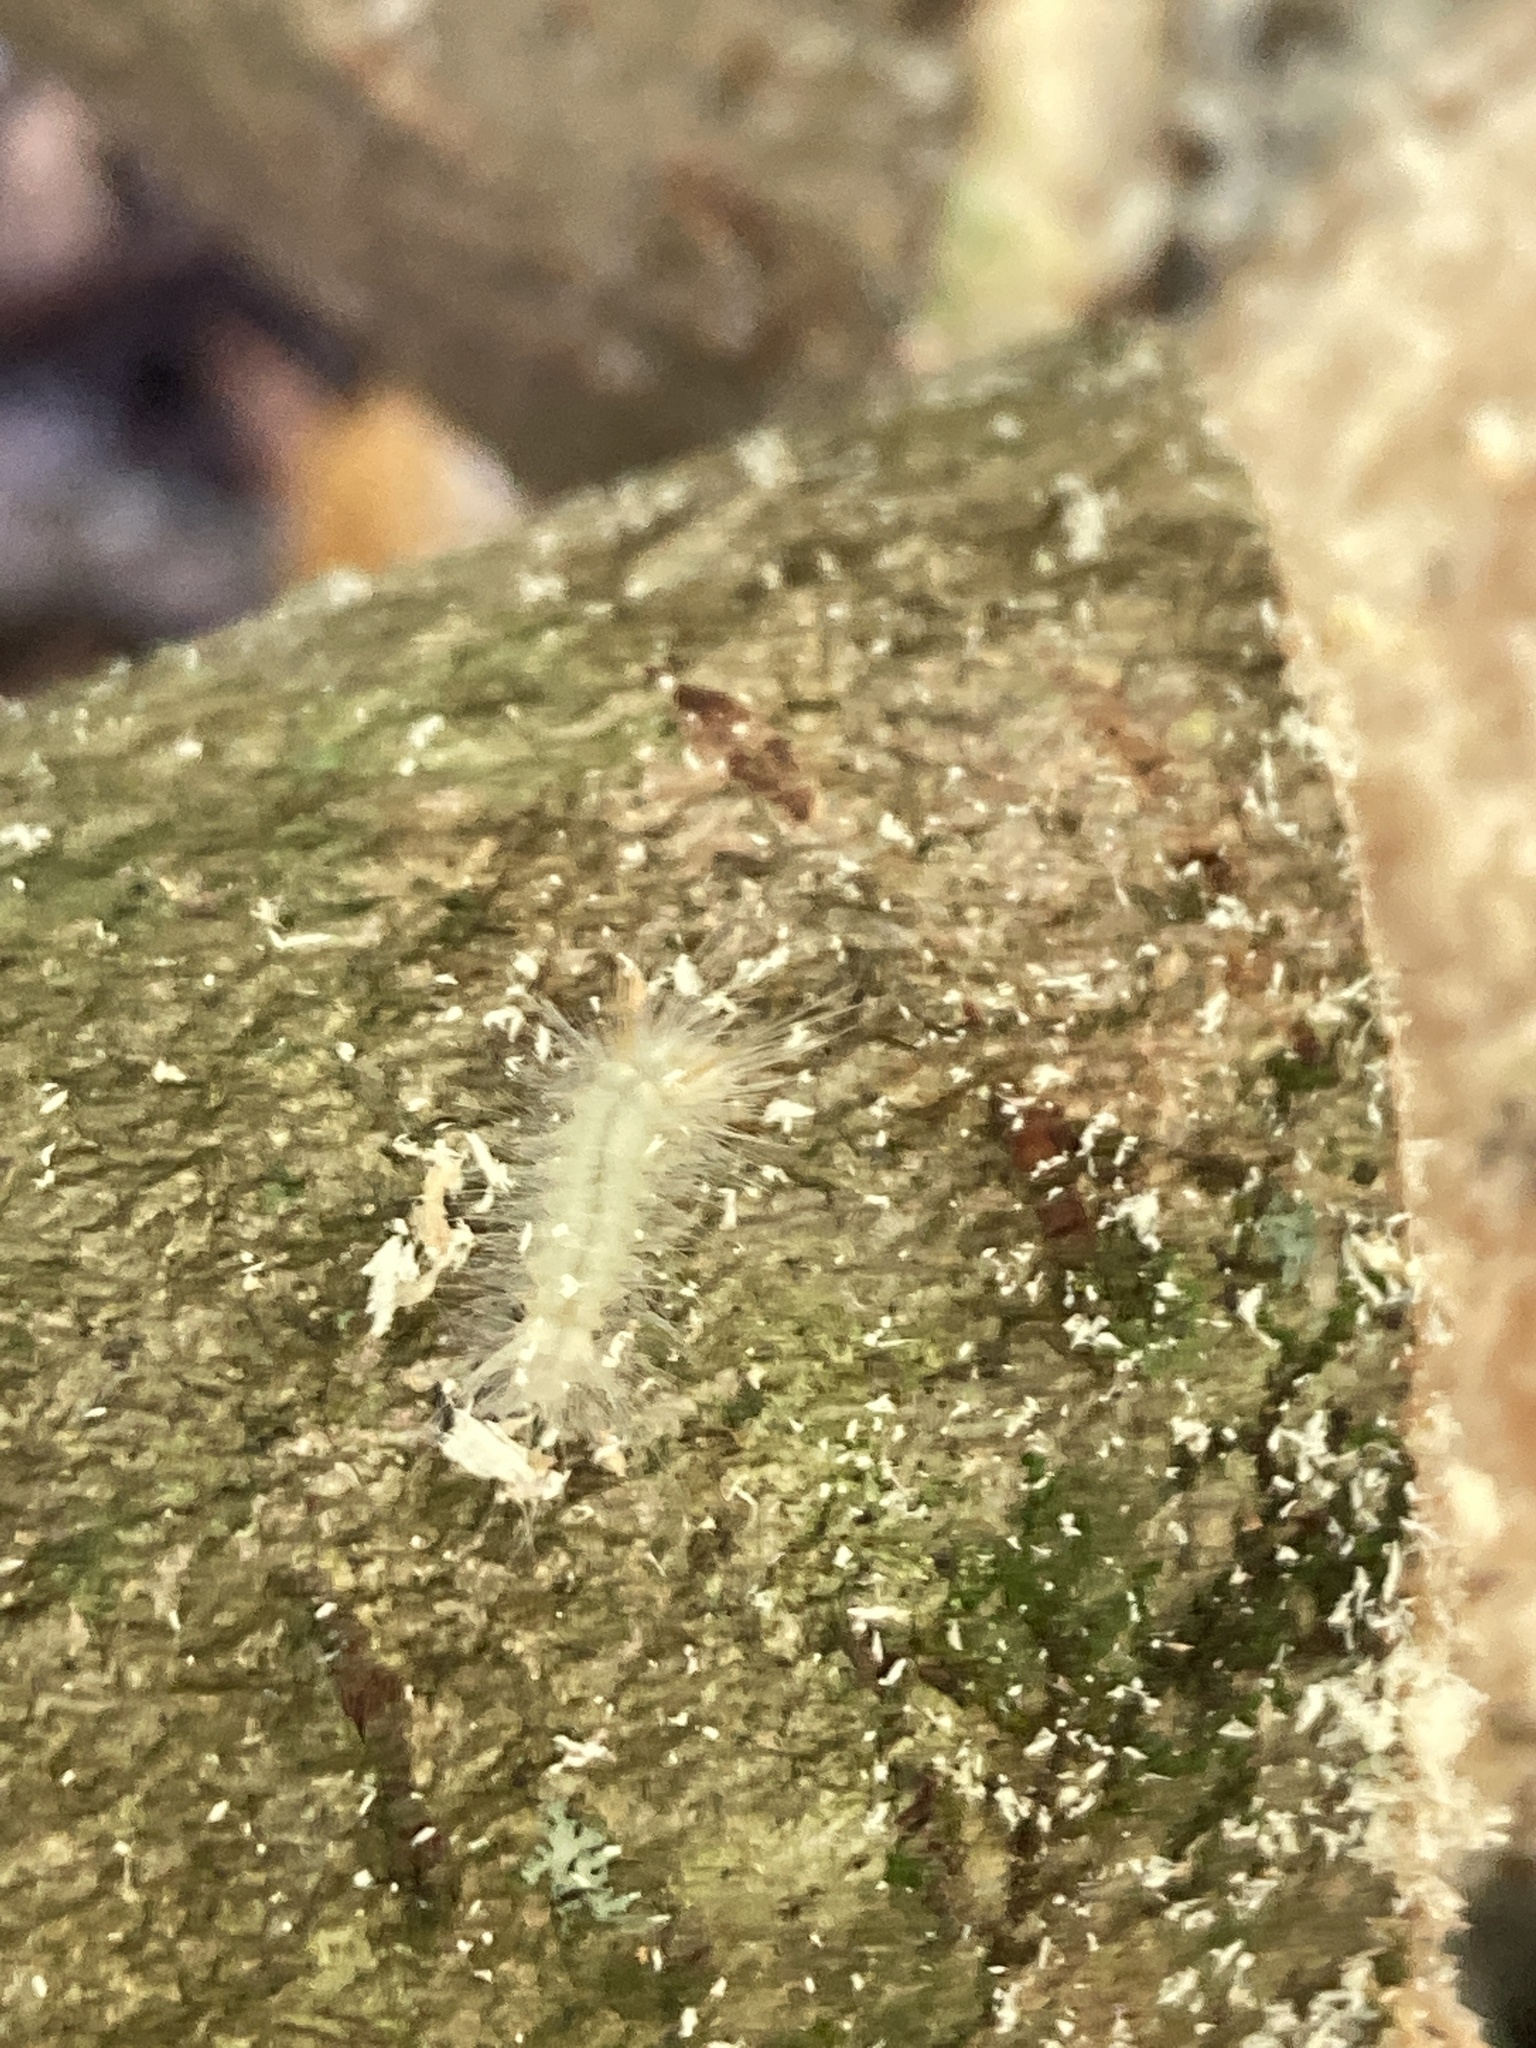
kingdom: Animalia
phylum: Arthropoda
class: Insecta
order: Lepidoptera
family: Erebidae
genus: Halysidota
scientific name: Halysidota harrisii
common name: Sycamore tussock moth
